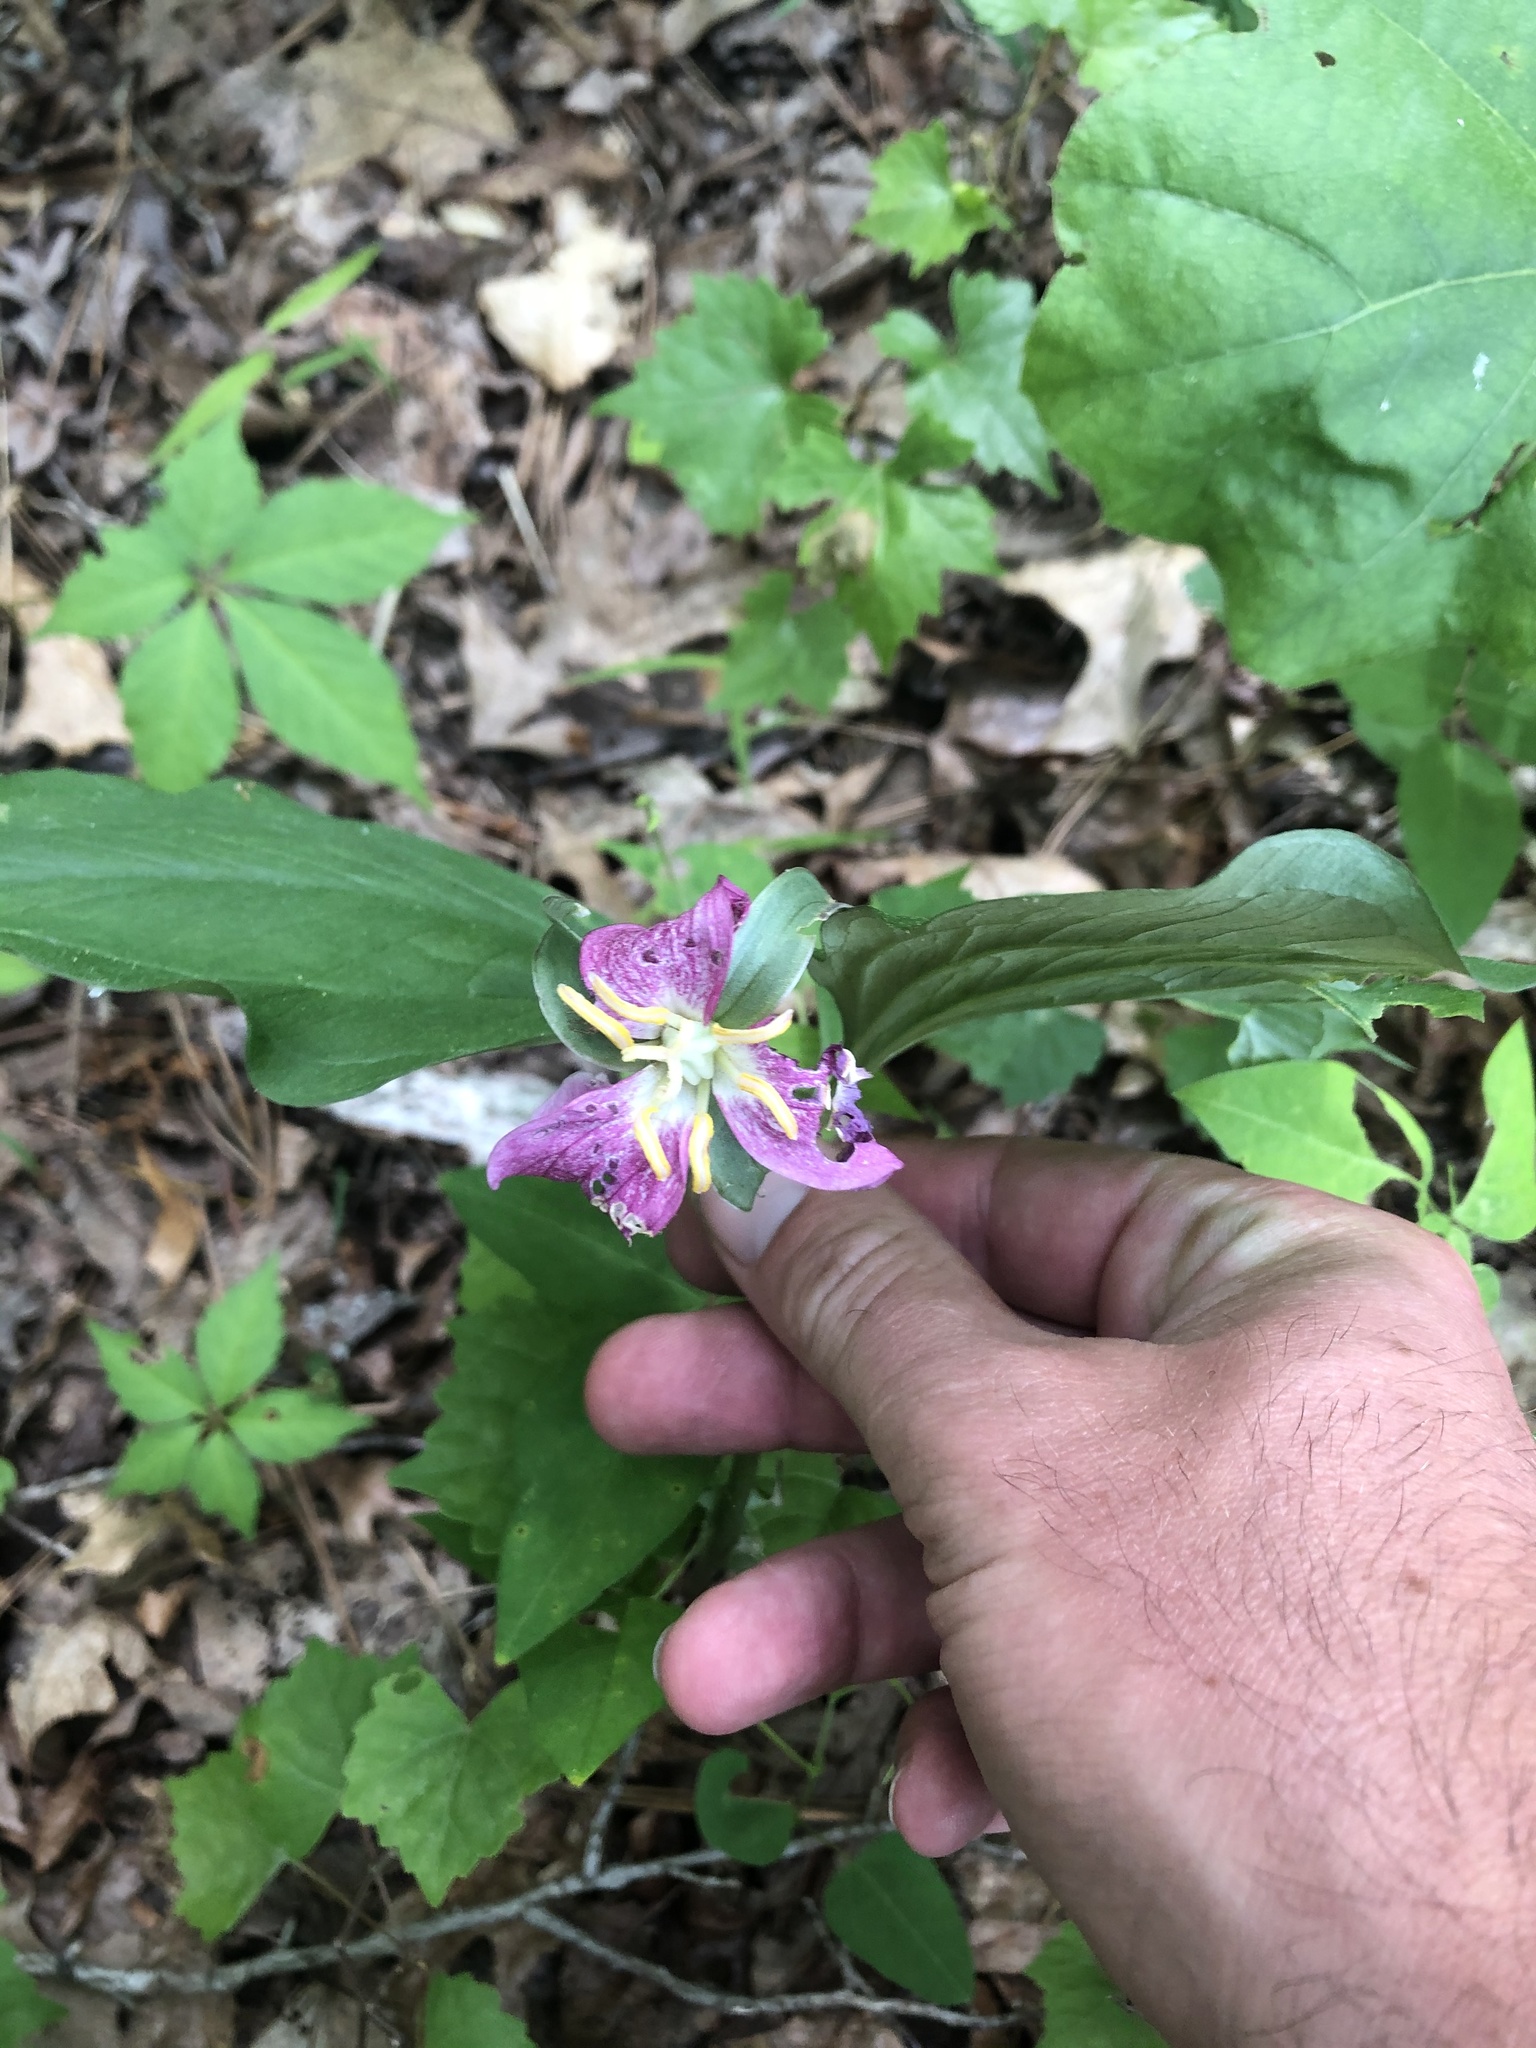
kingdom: Plantae
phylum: Tracheophyta
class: Liliopsida
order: Liliales
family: Melanthiaceae
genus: Trillium
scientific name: Trillium catesbaei
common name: Bashful trillium
